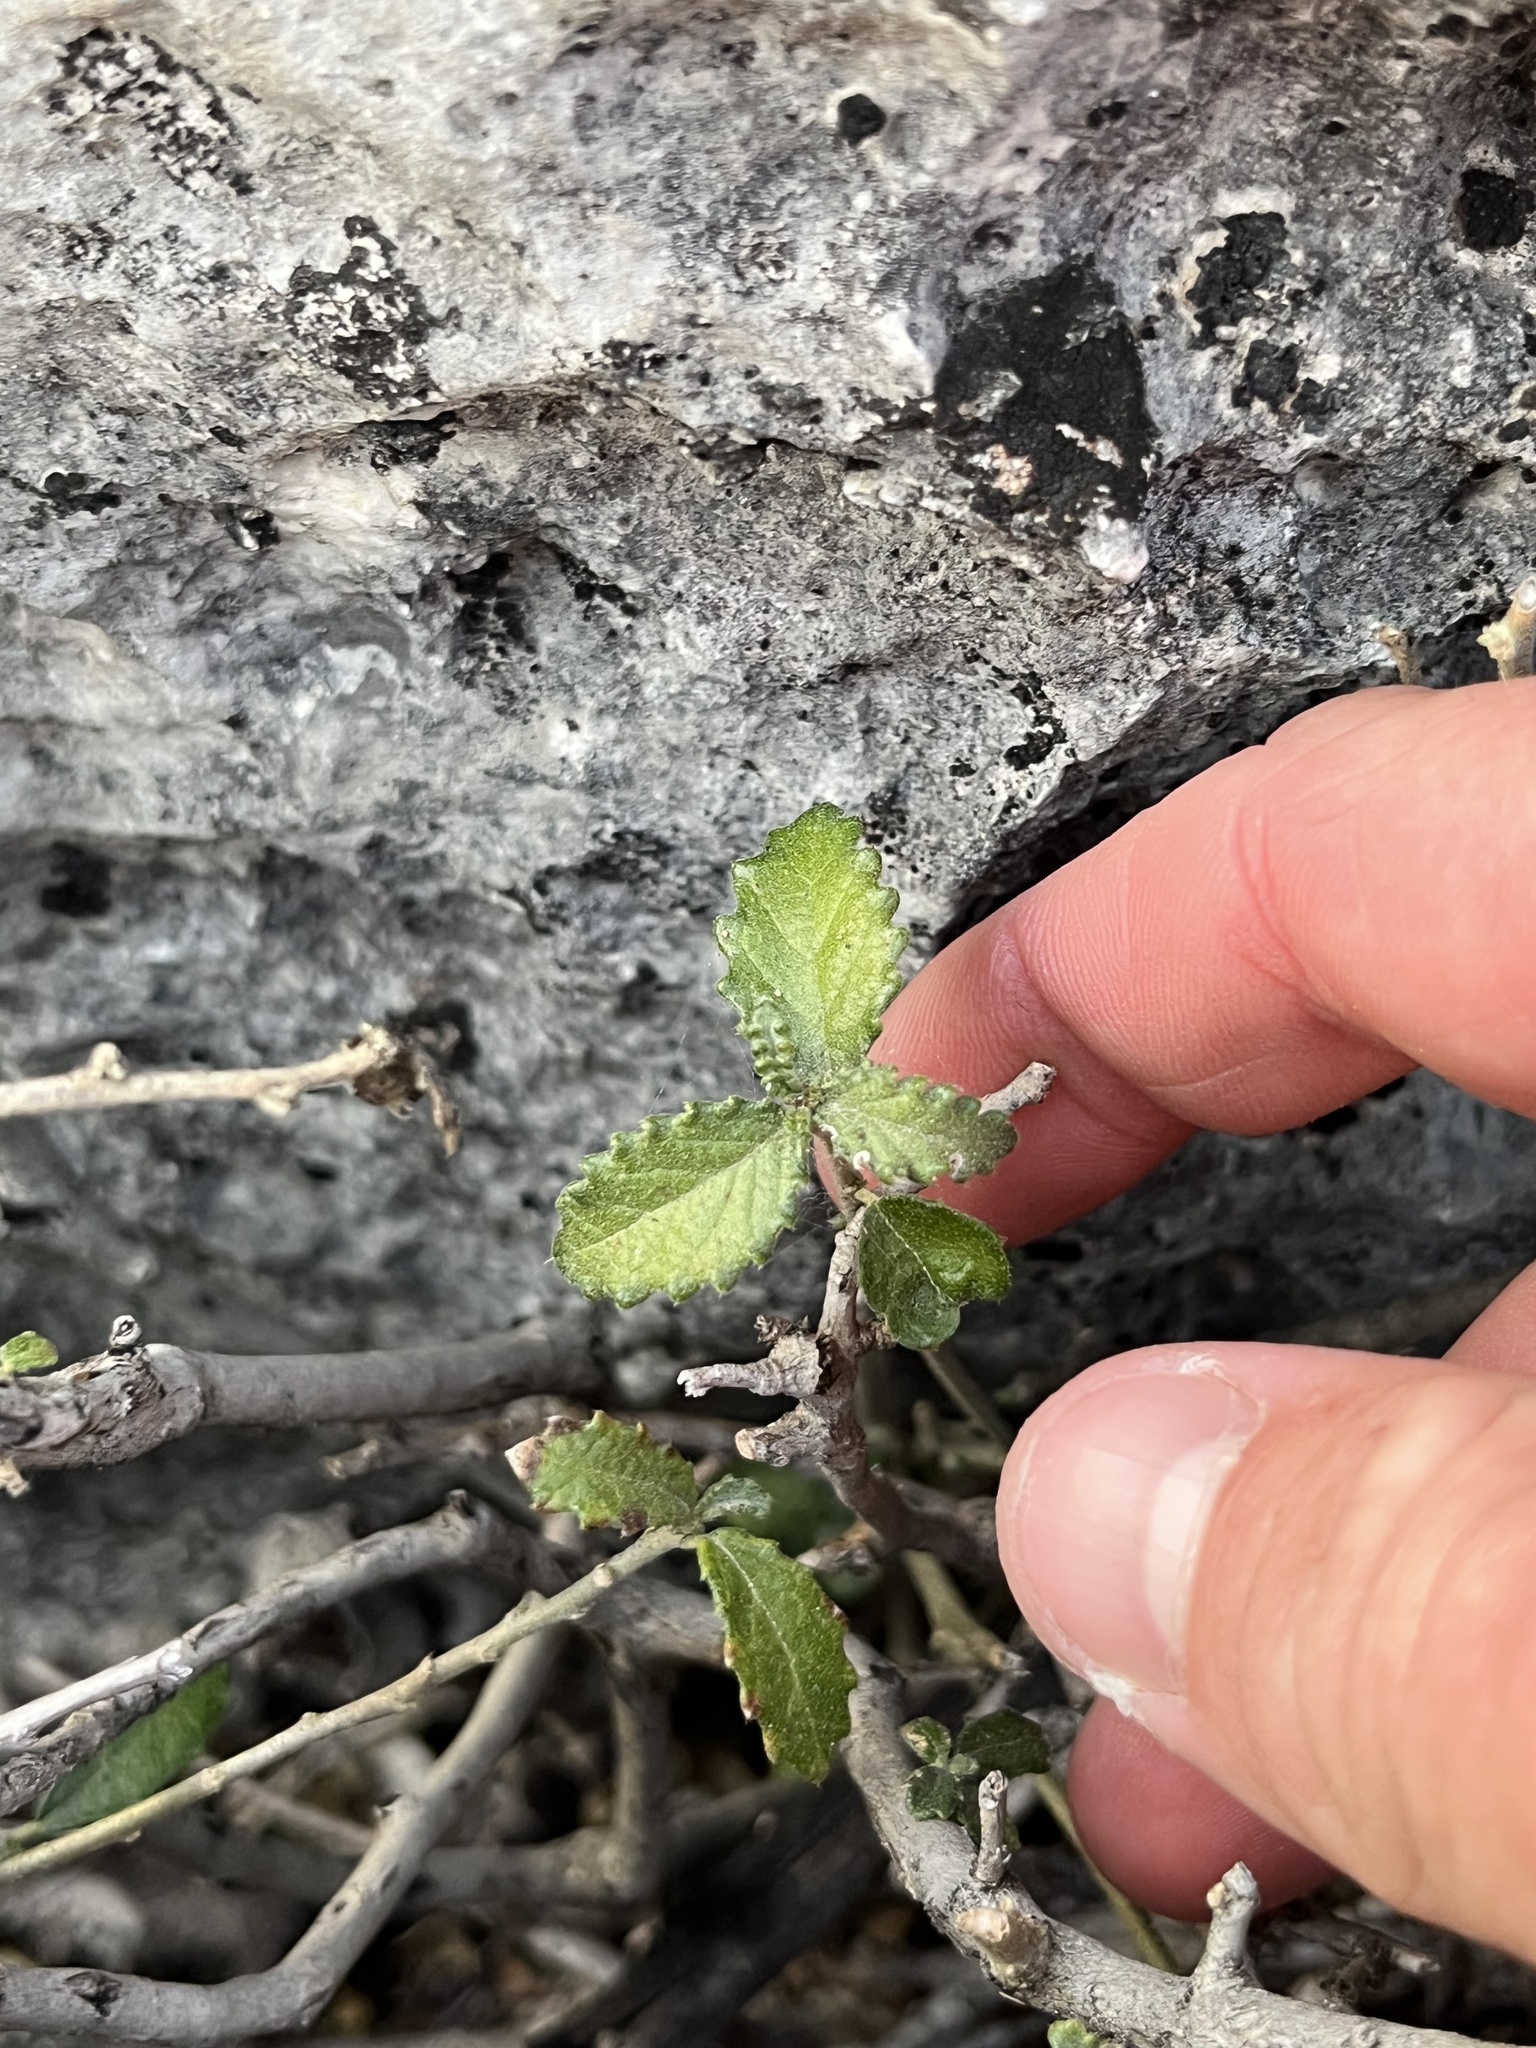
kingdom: Plantae
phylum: Tracheophyta
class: Magnoliopsida
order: Malpighiales
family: Euphorbiaceae
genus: Bernardia
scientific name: Bernardia myricifolia
